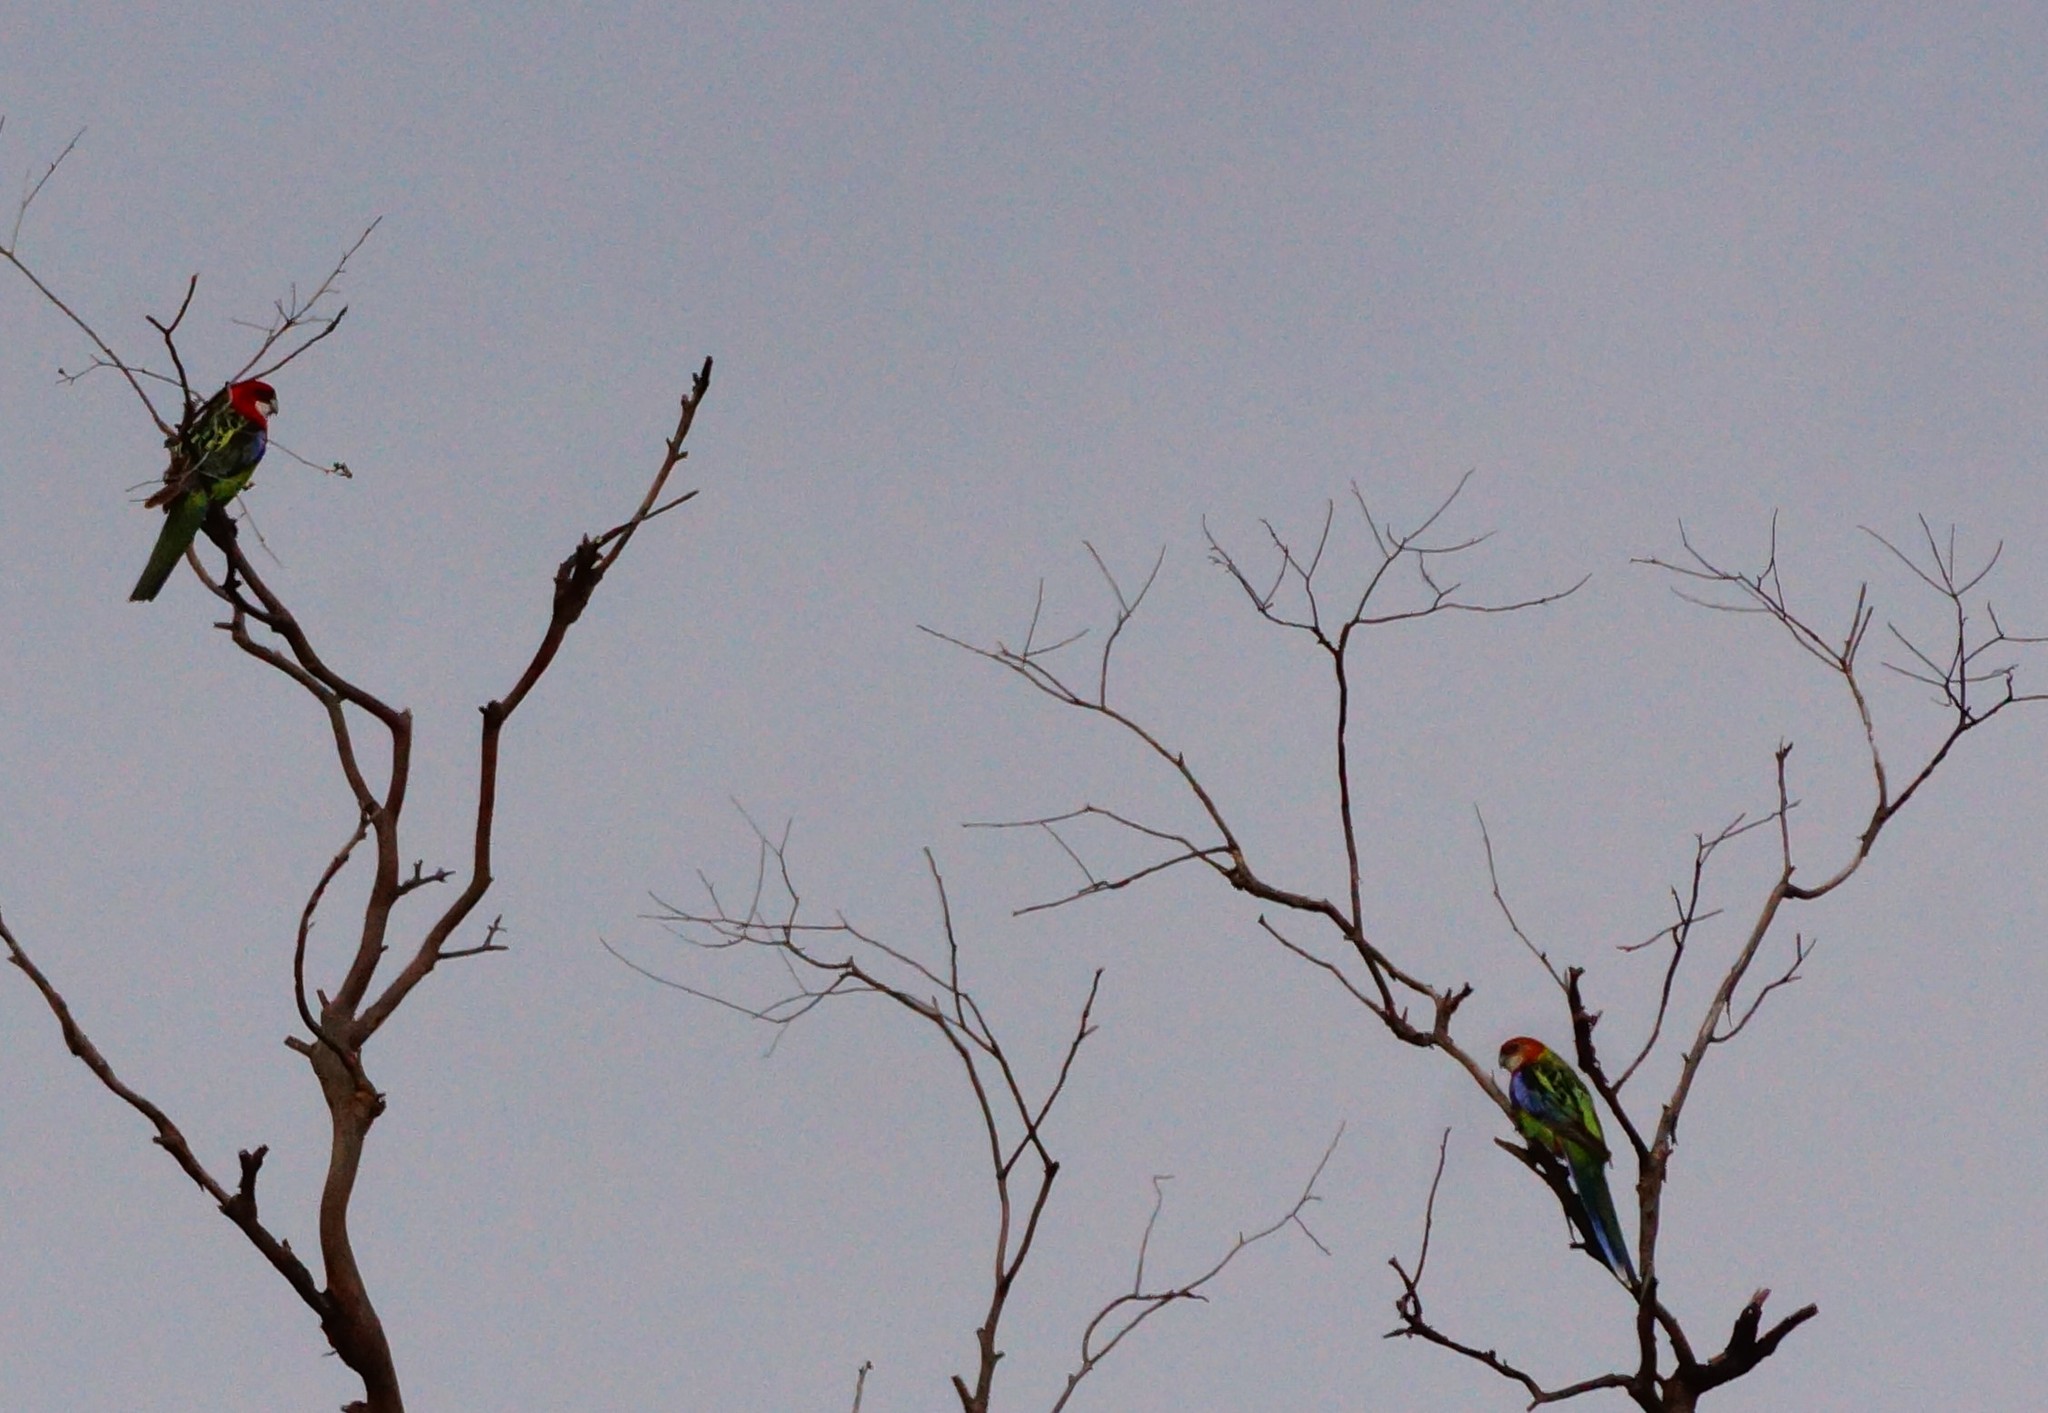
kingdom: Animalia
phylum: Chordata
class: Aves
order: Psittaciformes
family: Psittacidae
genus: Platycercus
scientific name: Platycercus eximius
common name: Eastern rosella
